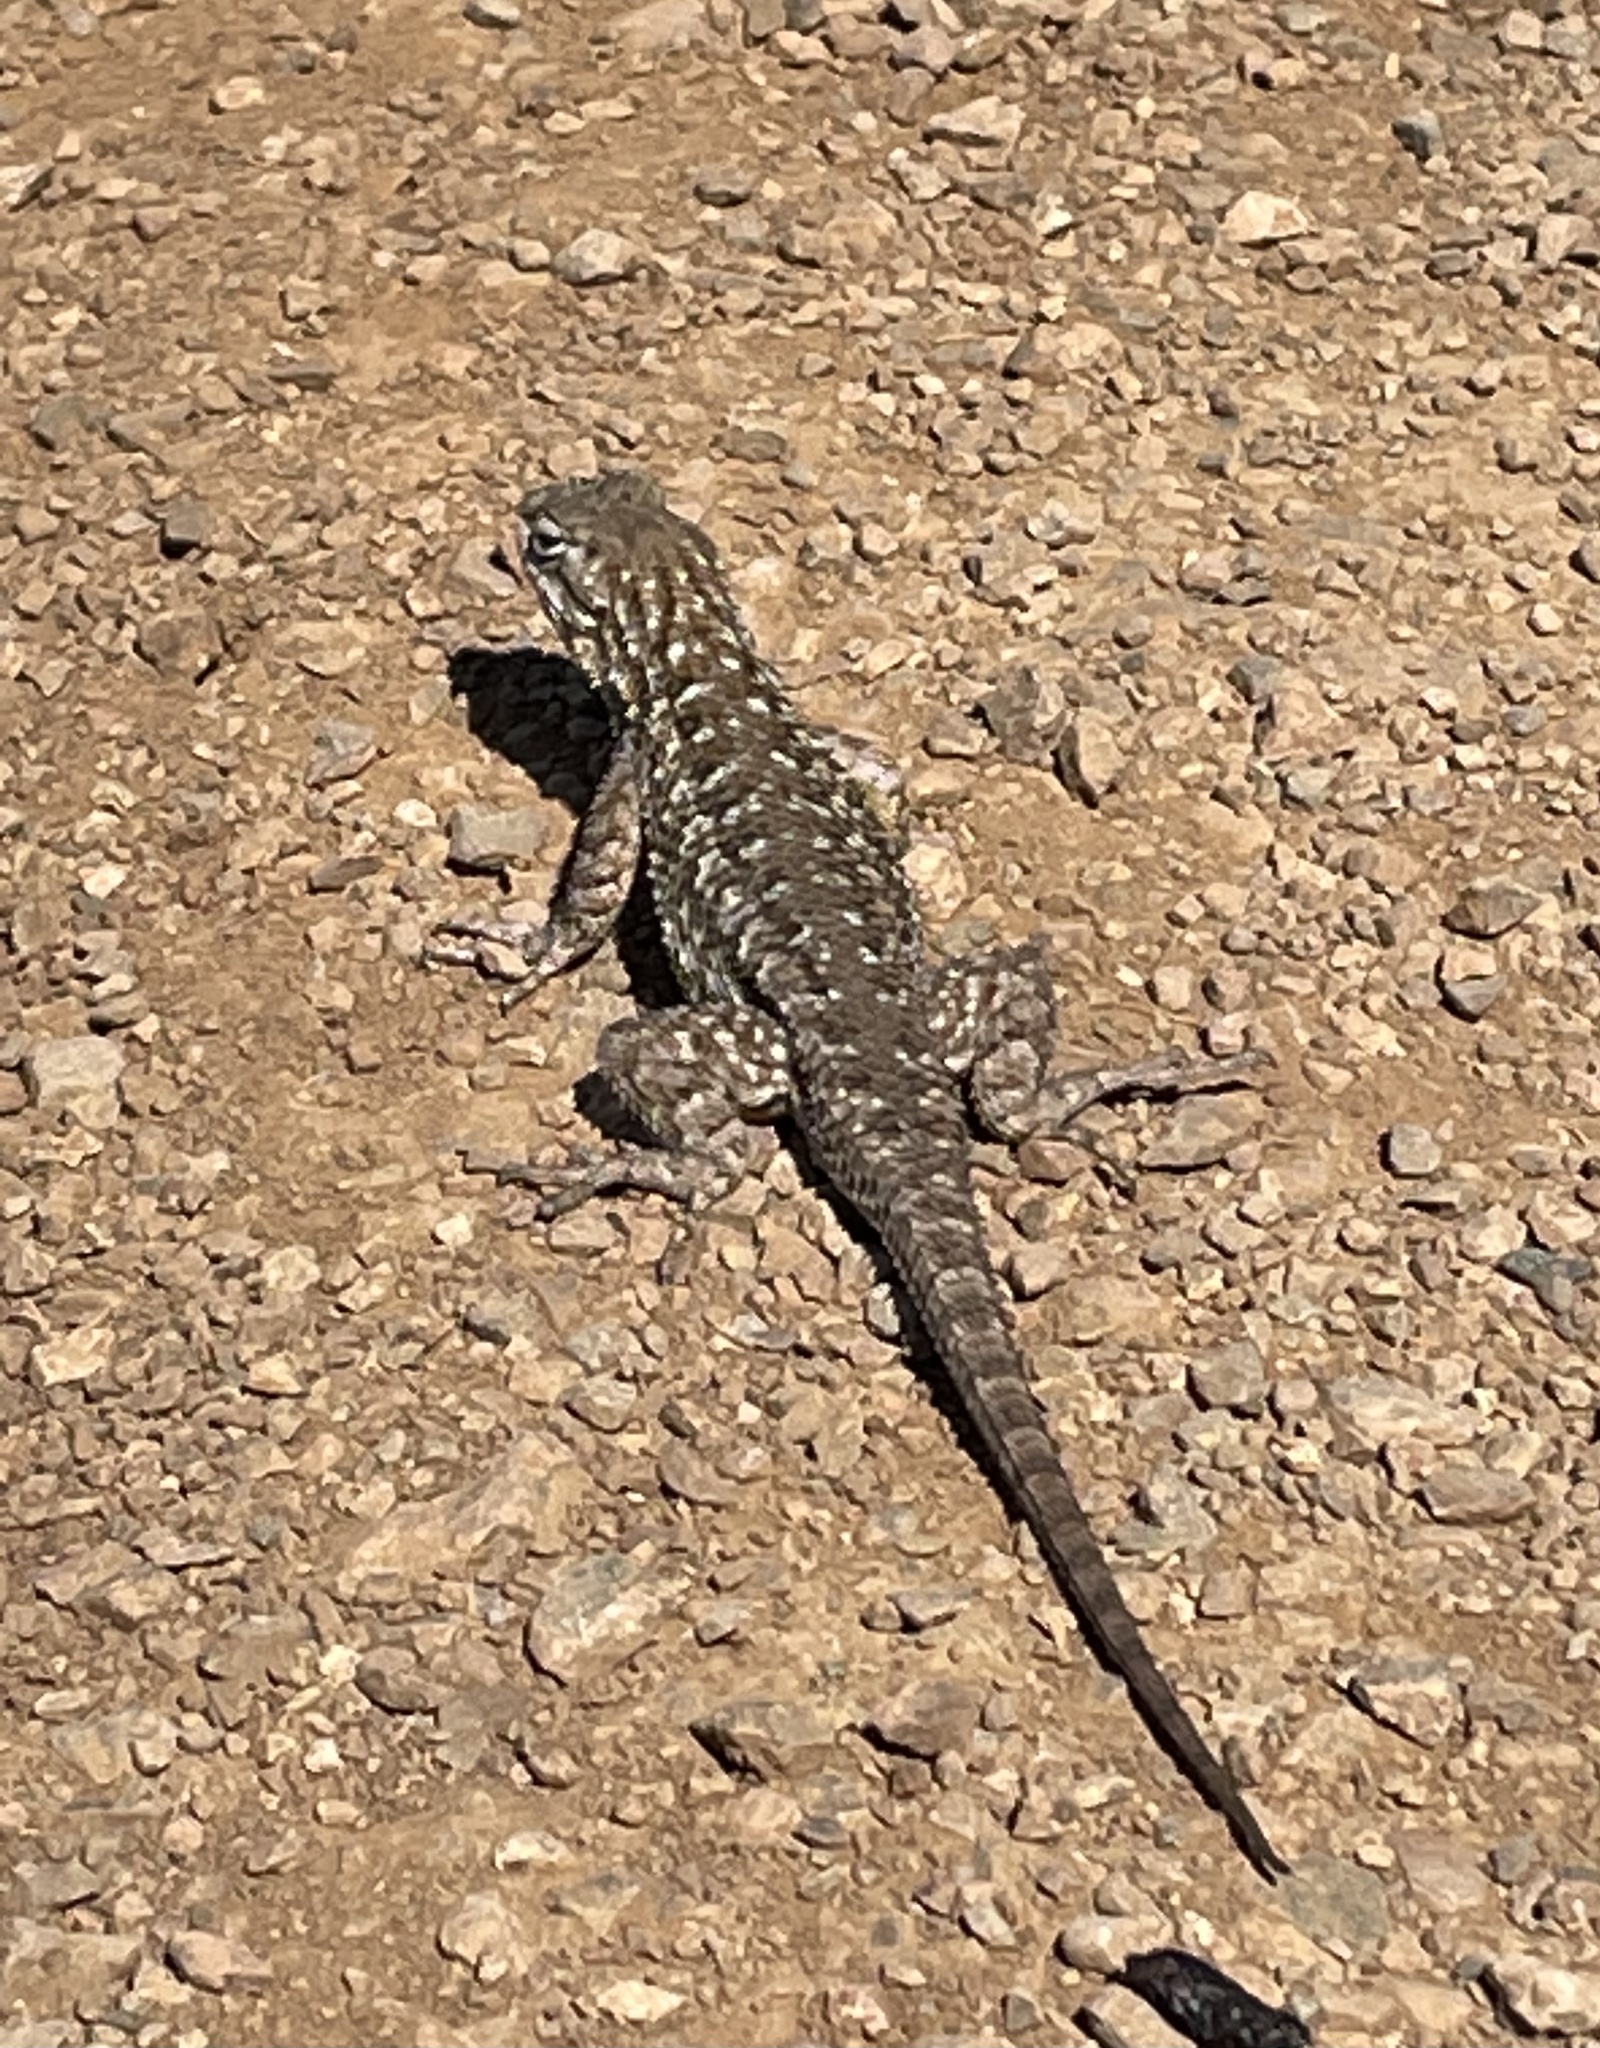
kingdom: Animalia
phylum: Chordata
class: Squamata
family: Phrynosomatidae
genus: Sceloporus
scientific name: Sceloporus occidentalis
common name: Western fence lizard
